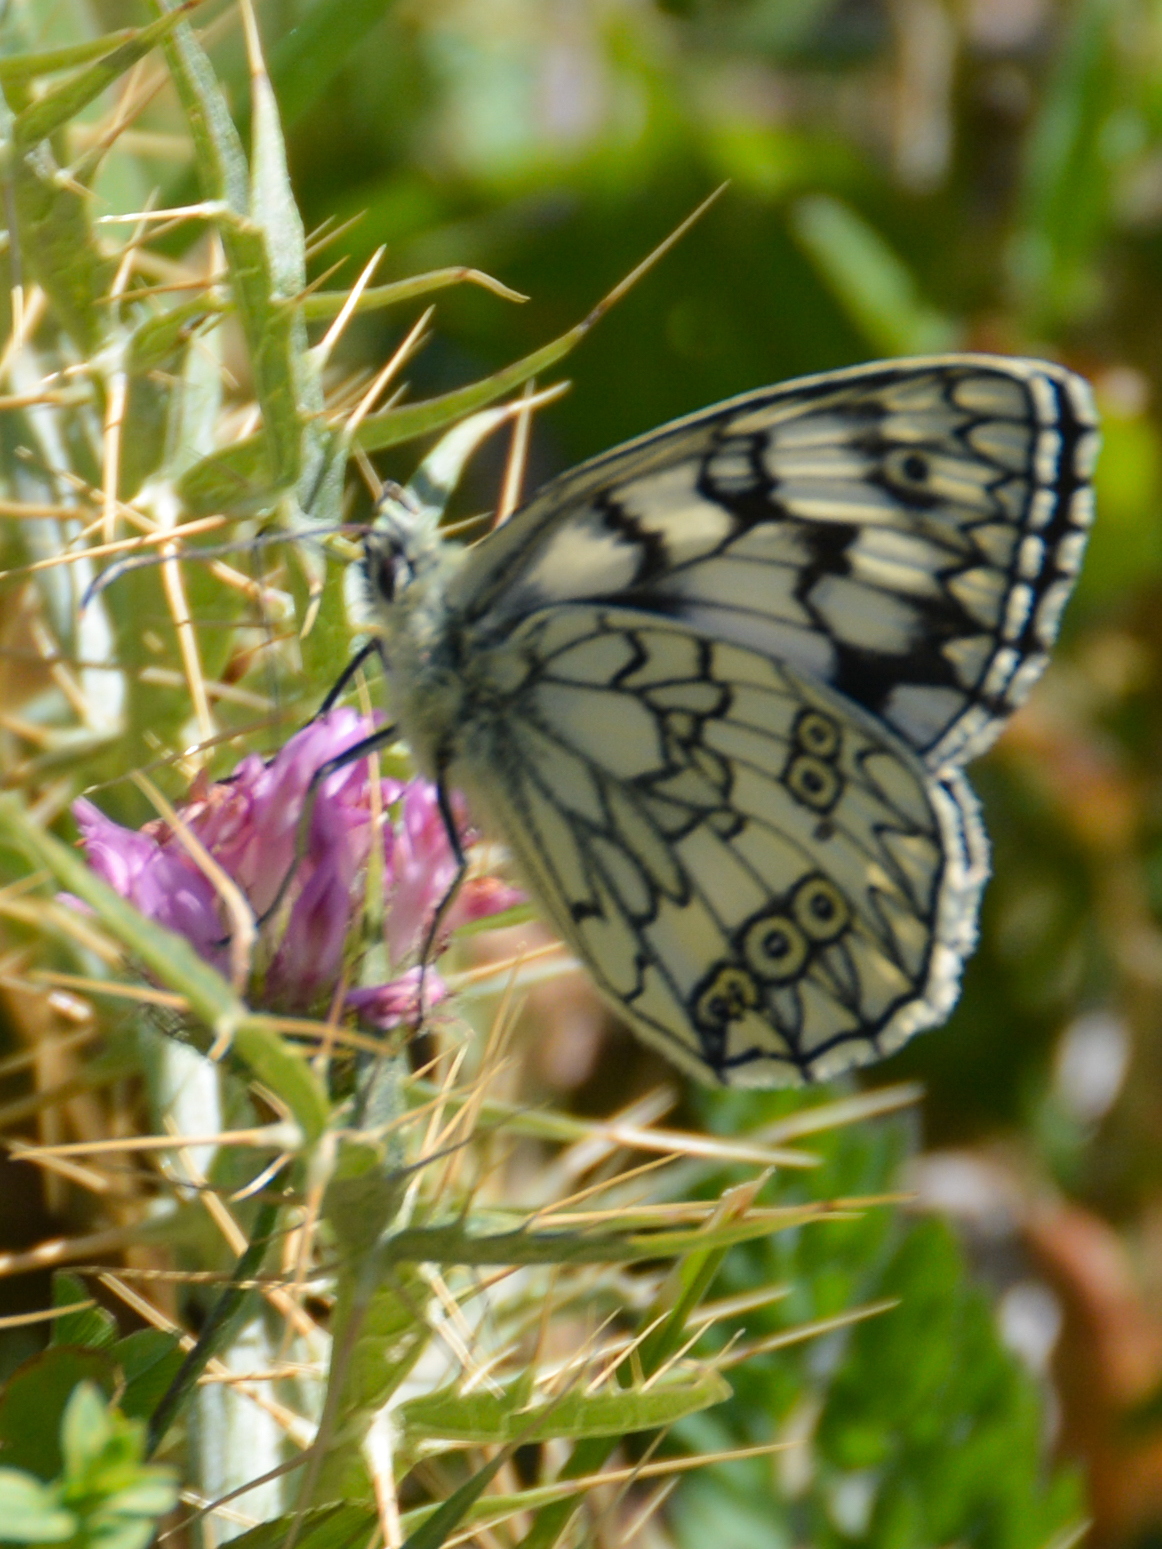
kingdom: Animalia
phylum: Arthropoda
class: Insecta
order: Lepidoptera
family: Nymphalidae
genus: Melanargia
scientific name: Melanargia japygia
